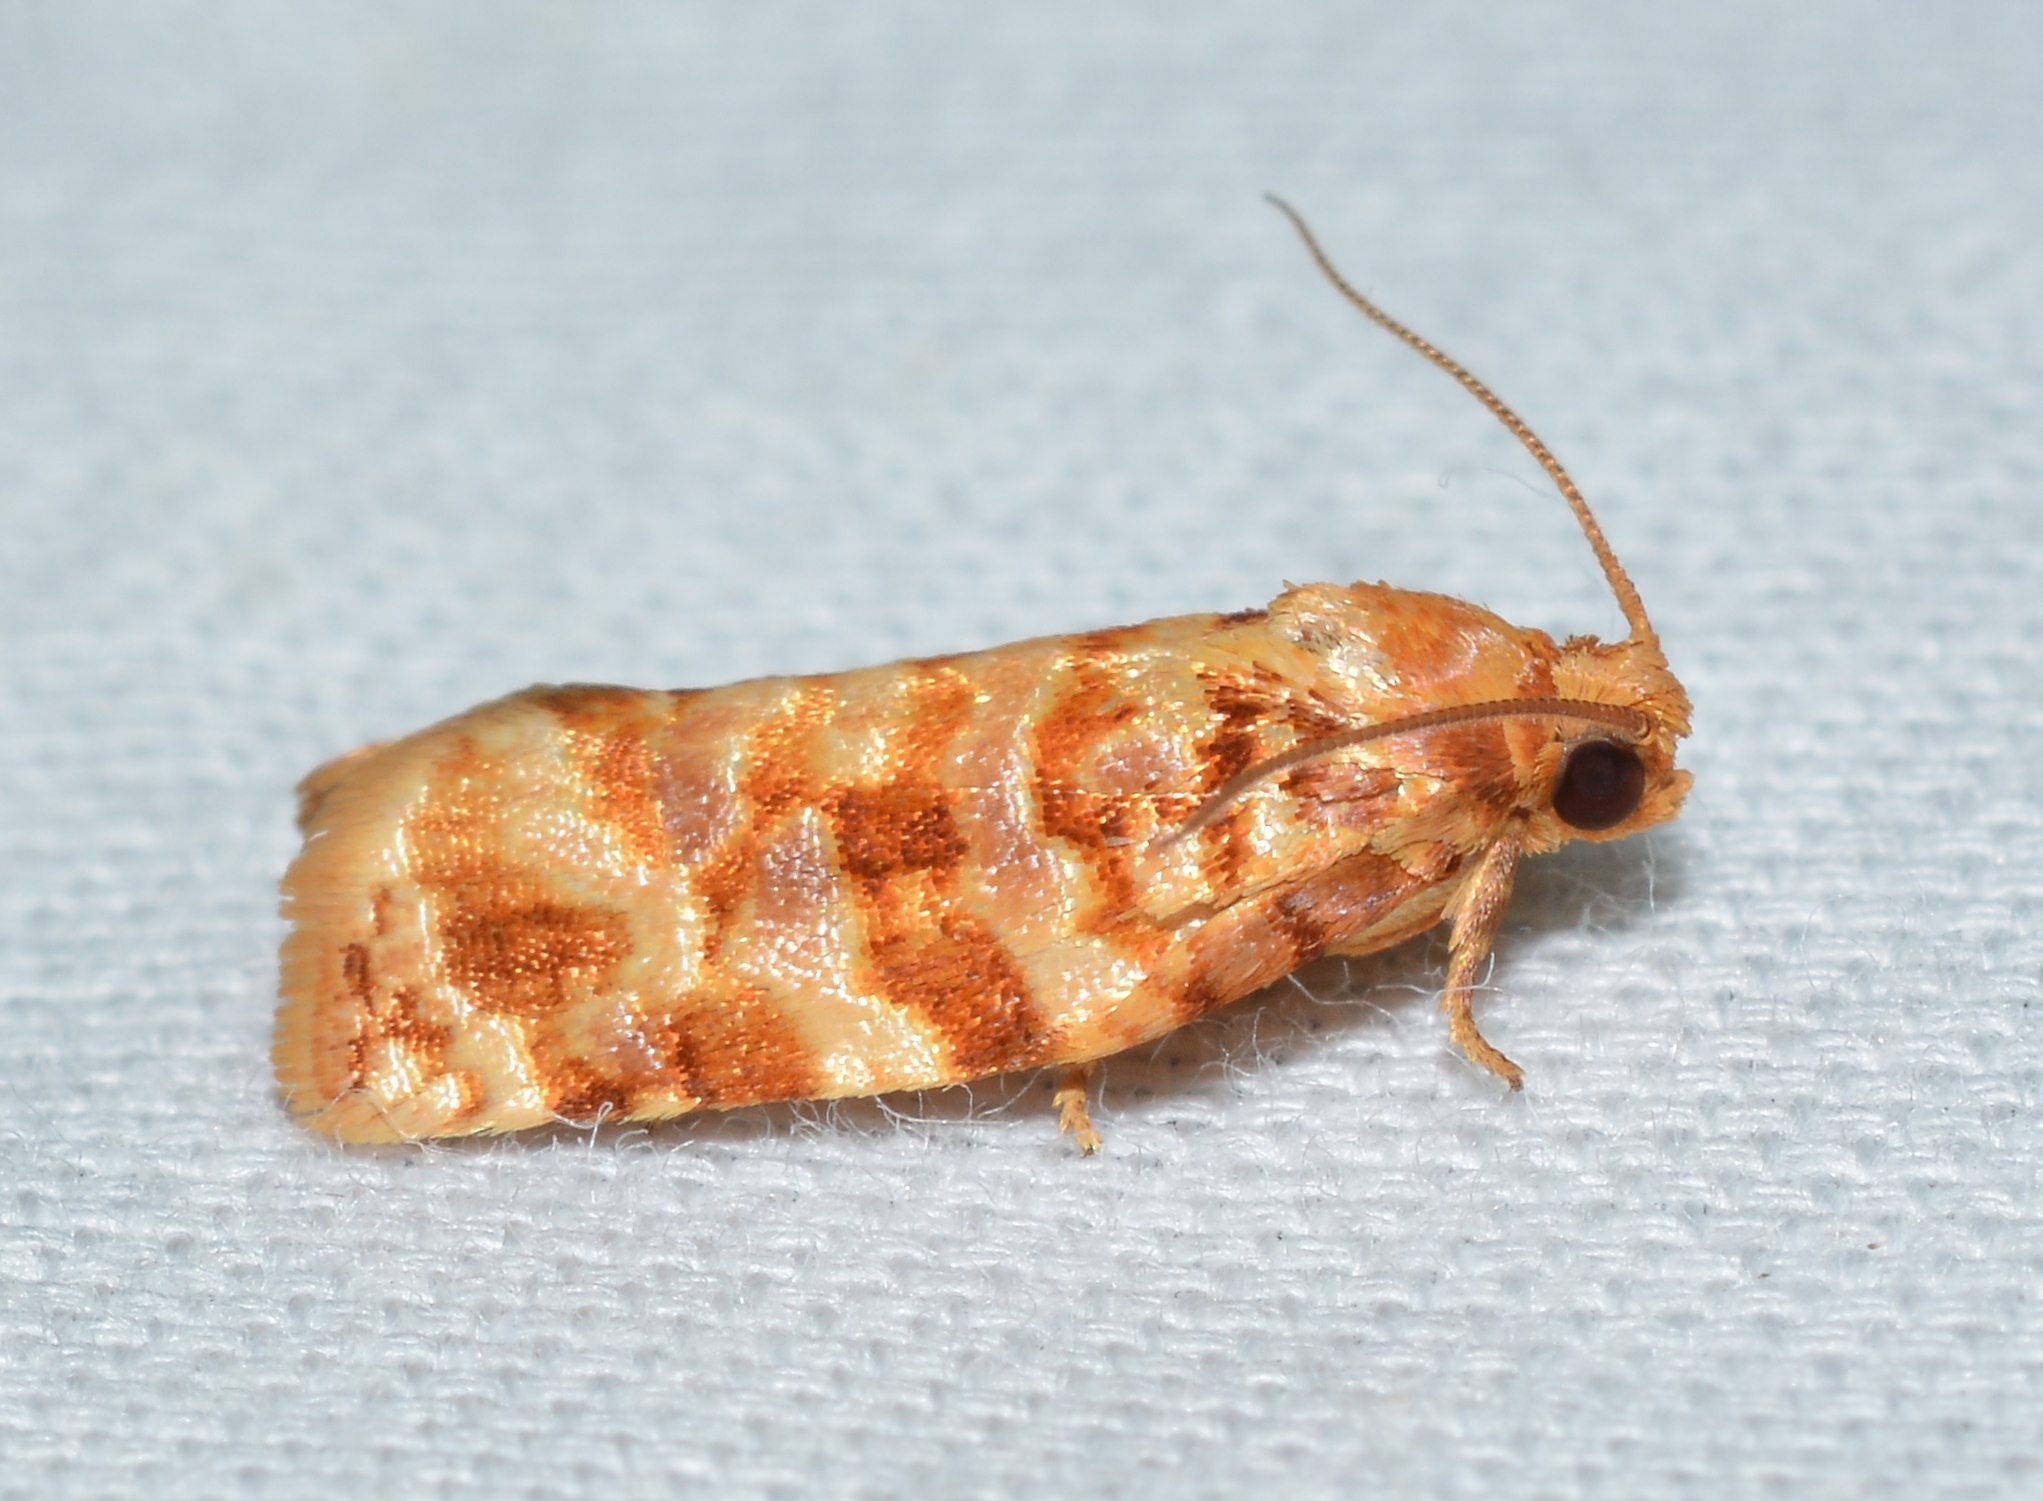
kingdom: Animalia
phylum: Arthropoda
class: Insecta
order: Lepidoptera
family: Tortricidae
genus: Archips
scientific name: Archips georgiana
